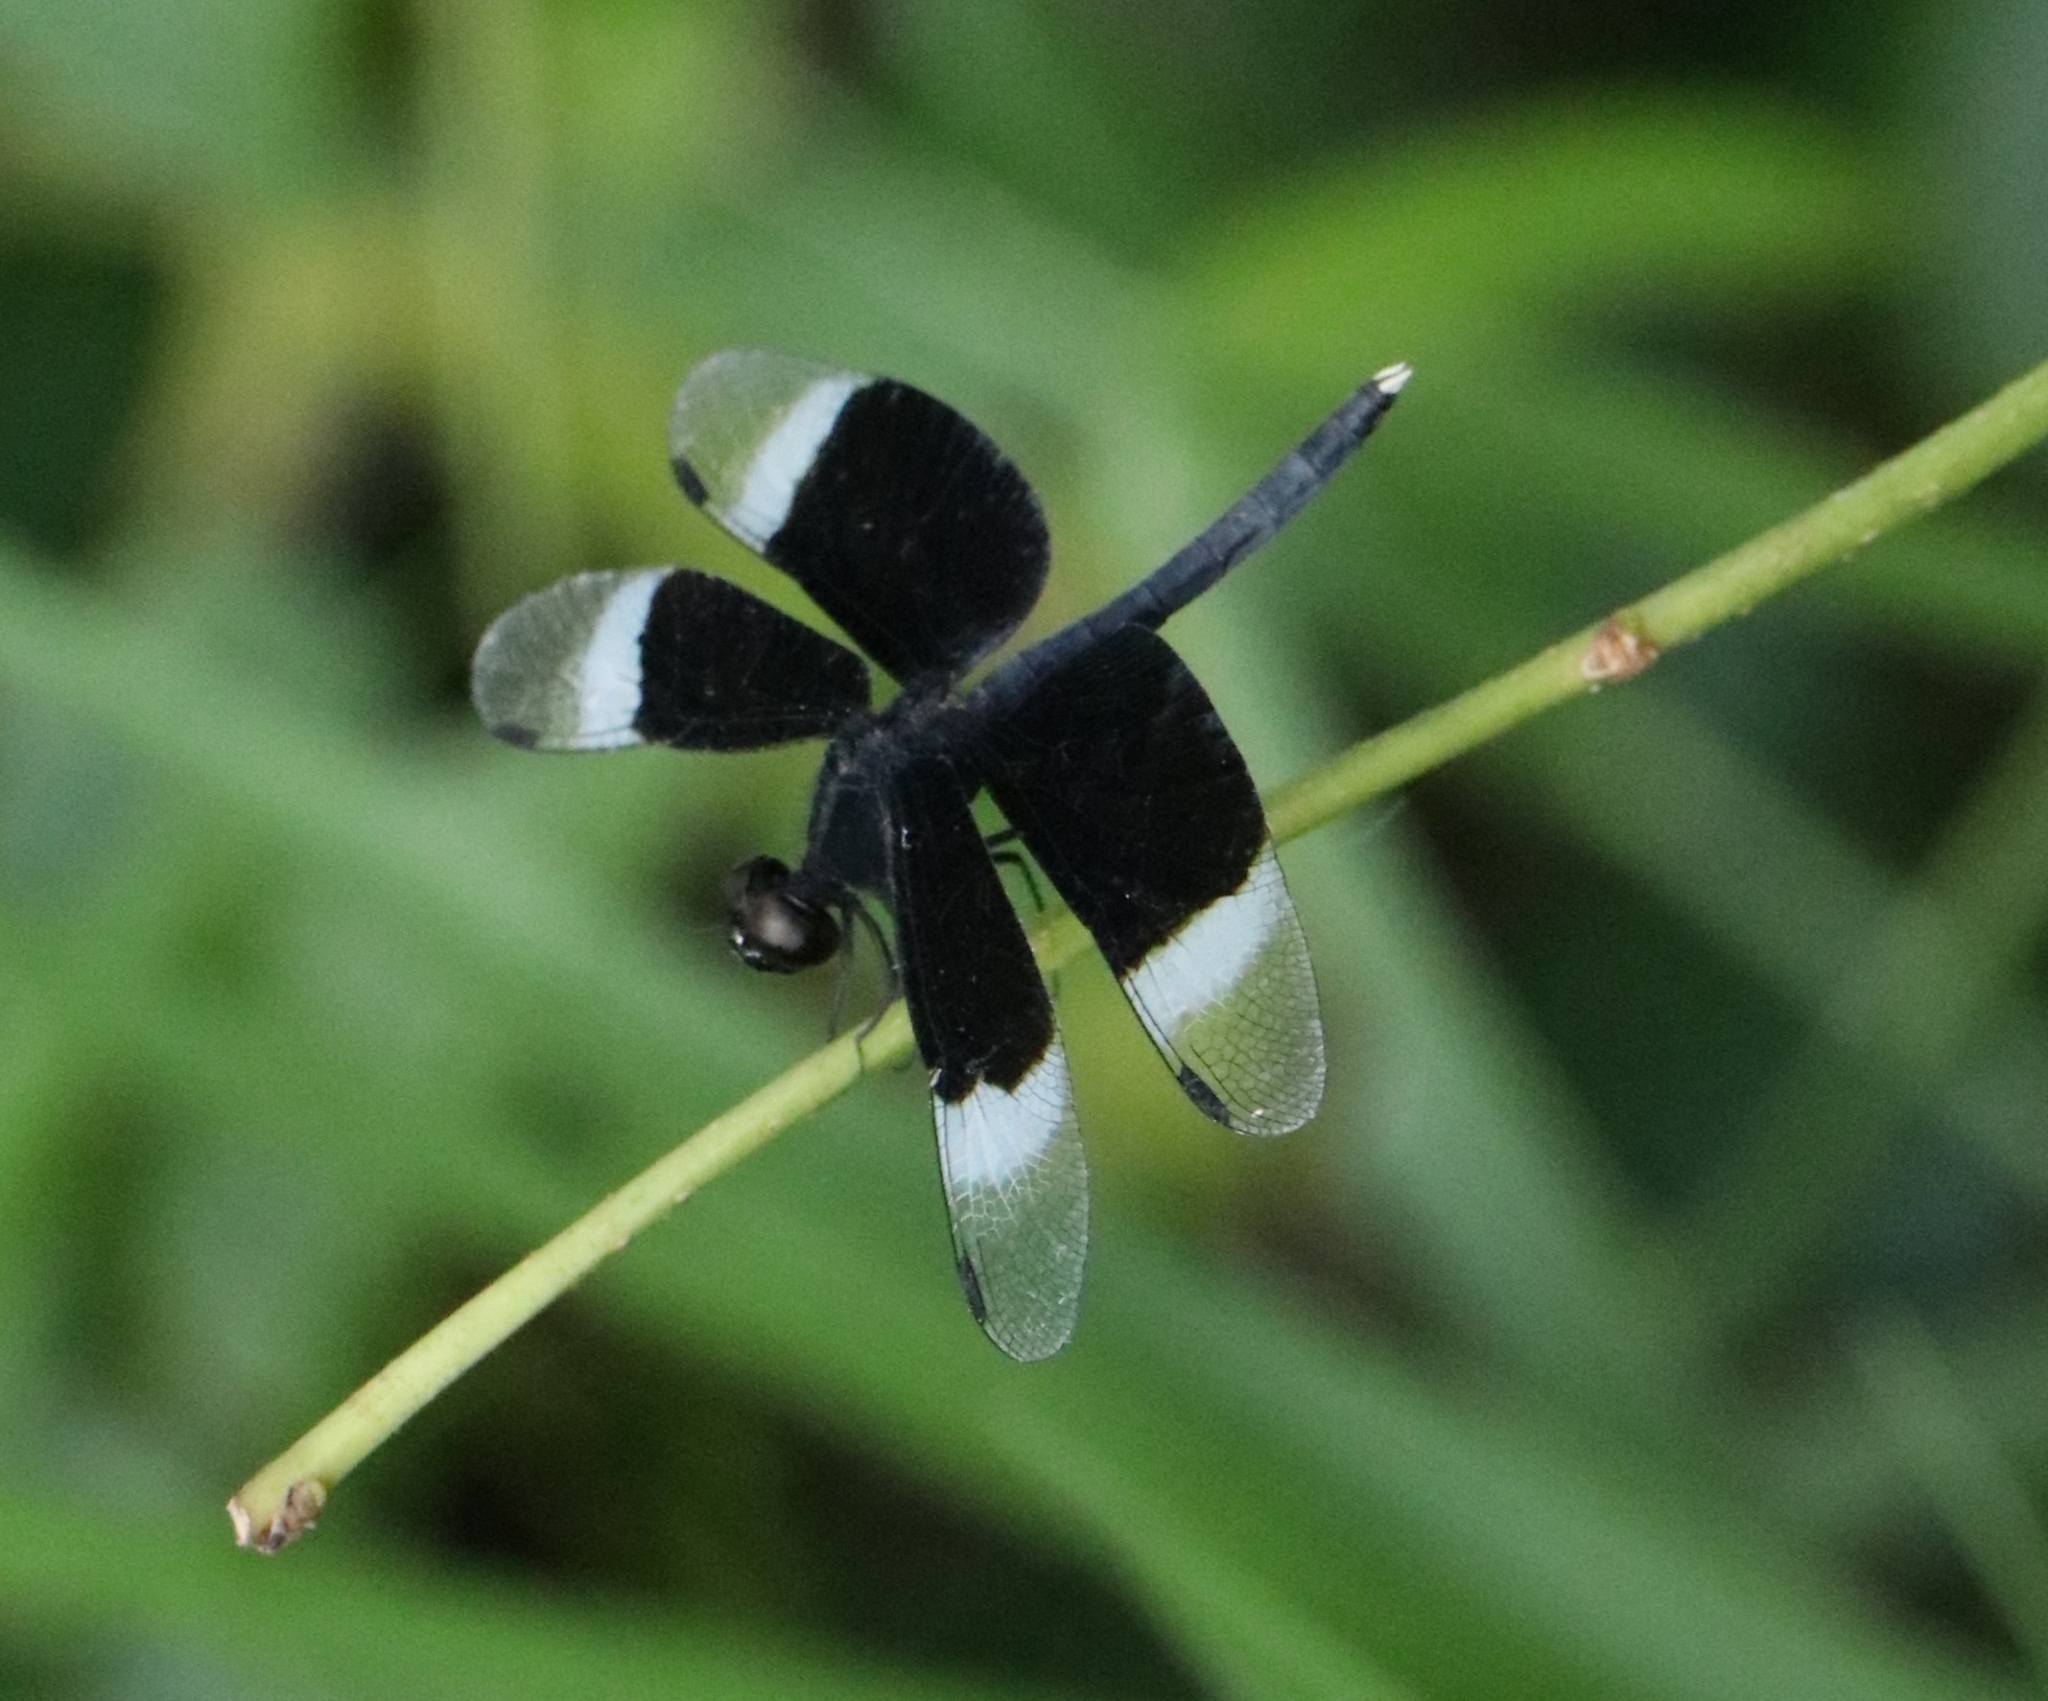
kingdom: Animalia
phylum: Arthropoda
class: Insecta
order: Odonata
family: Libellulidae
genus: Neurothemis
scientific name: Neurothemis tullia
